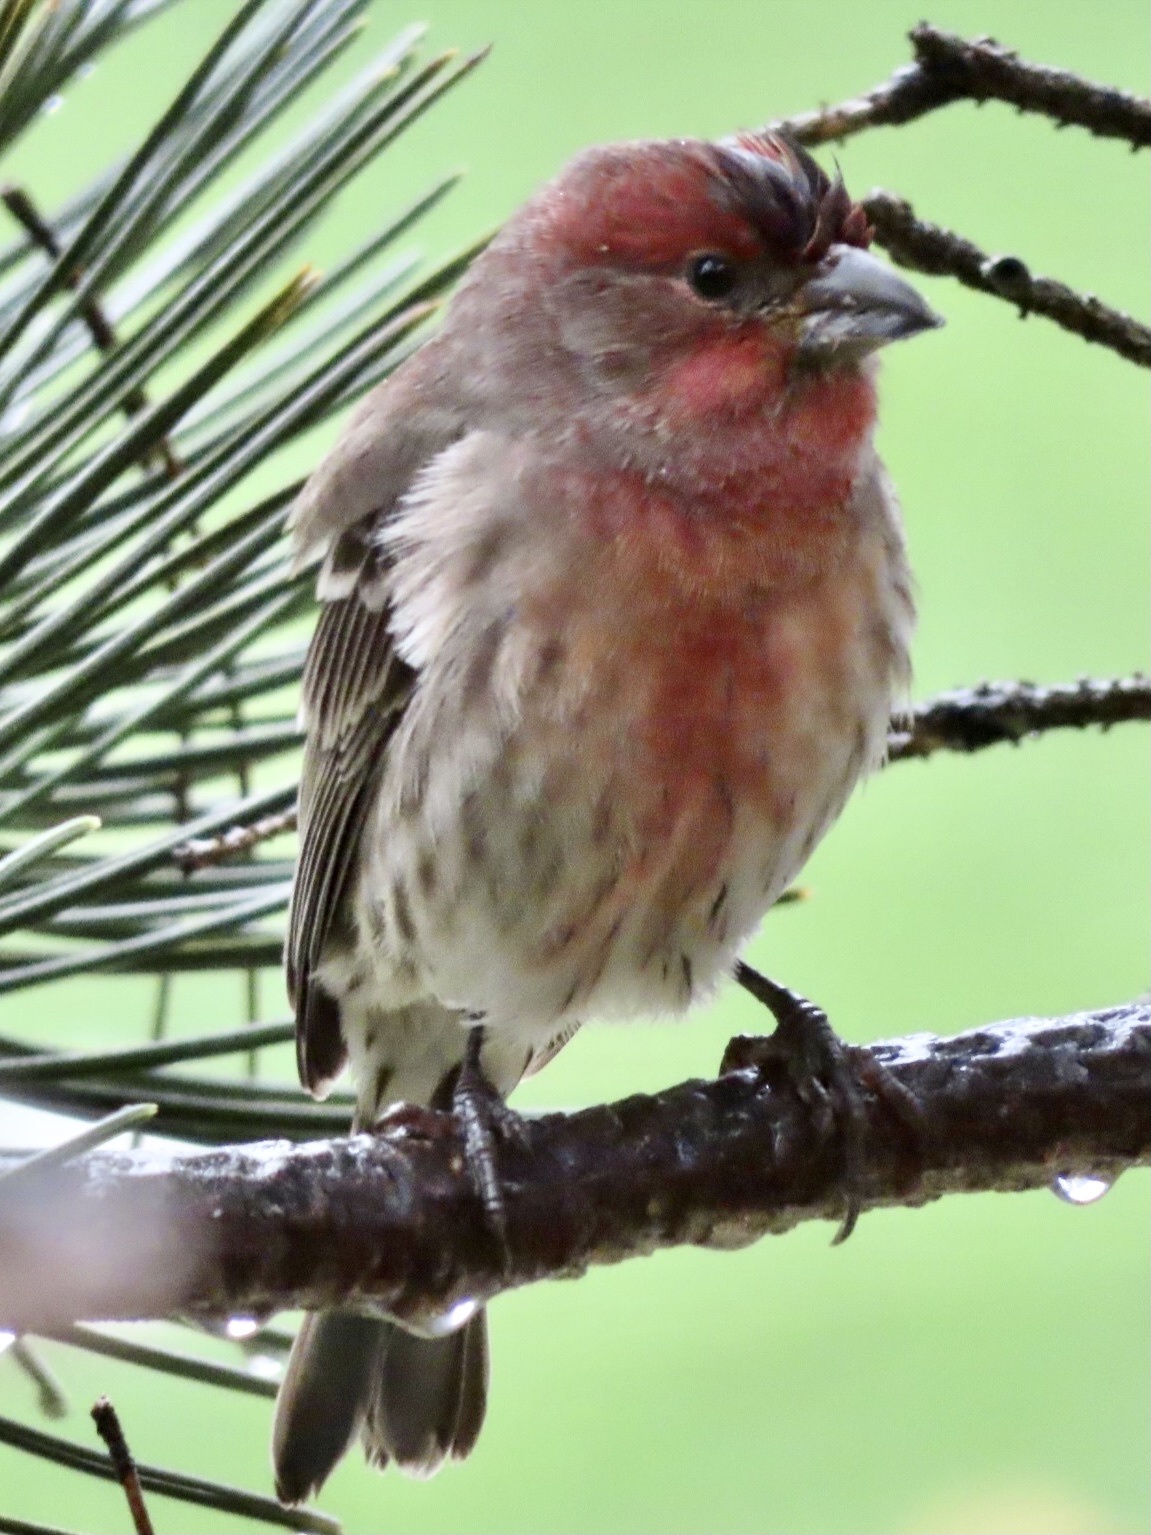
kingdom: Animalia
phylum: Chordata
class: Aves
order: Passeriformes
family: Fringillidae
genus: Haemorhous
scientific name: Haemorhous mexicanus
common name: House finch
